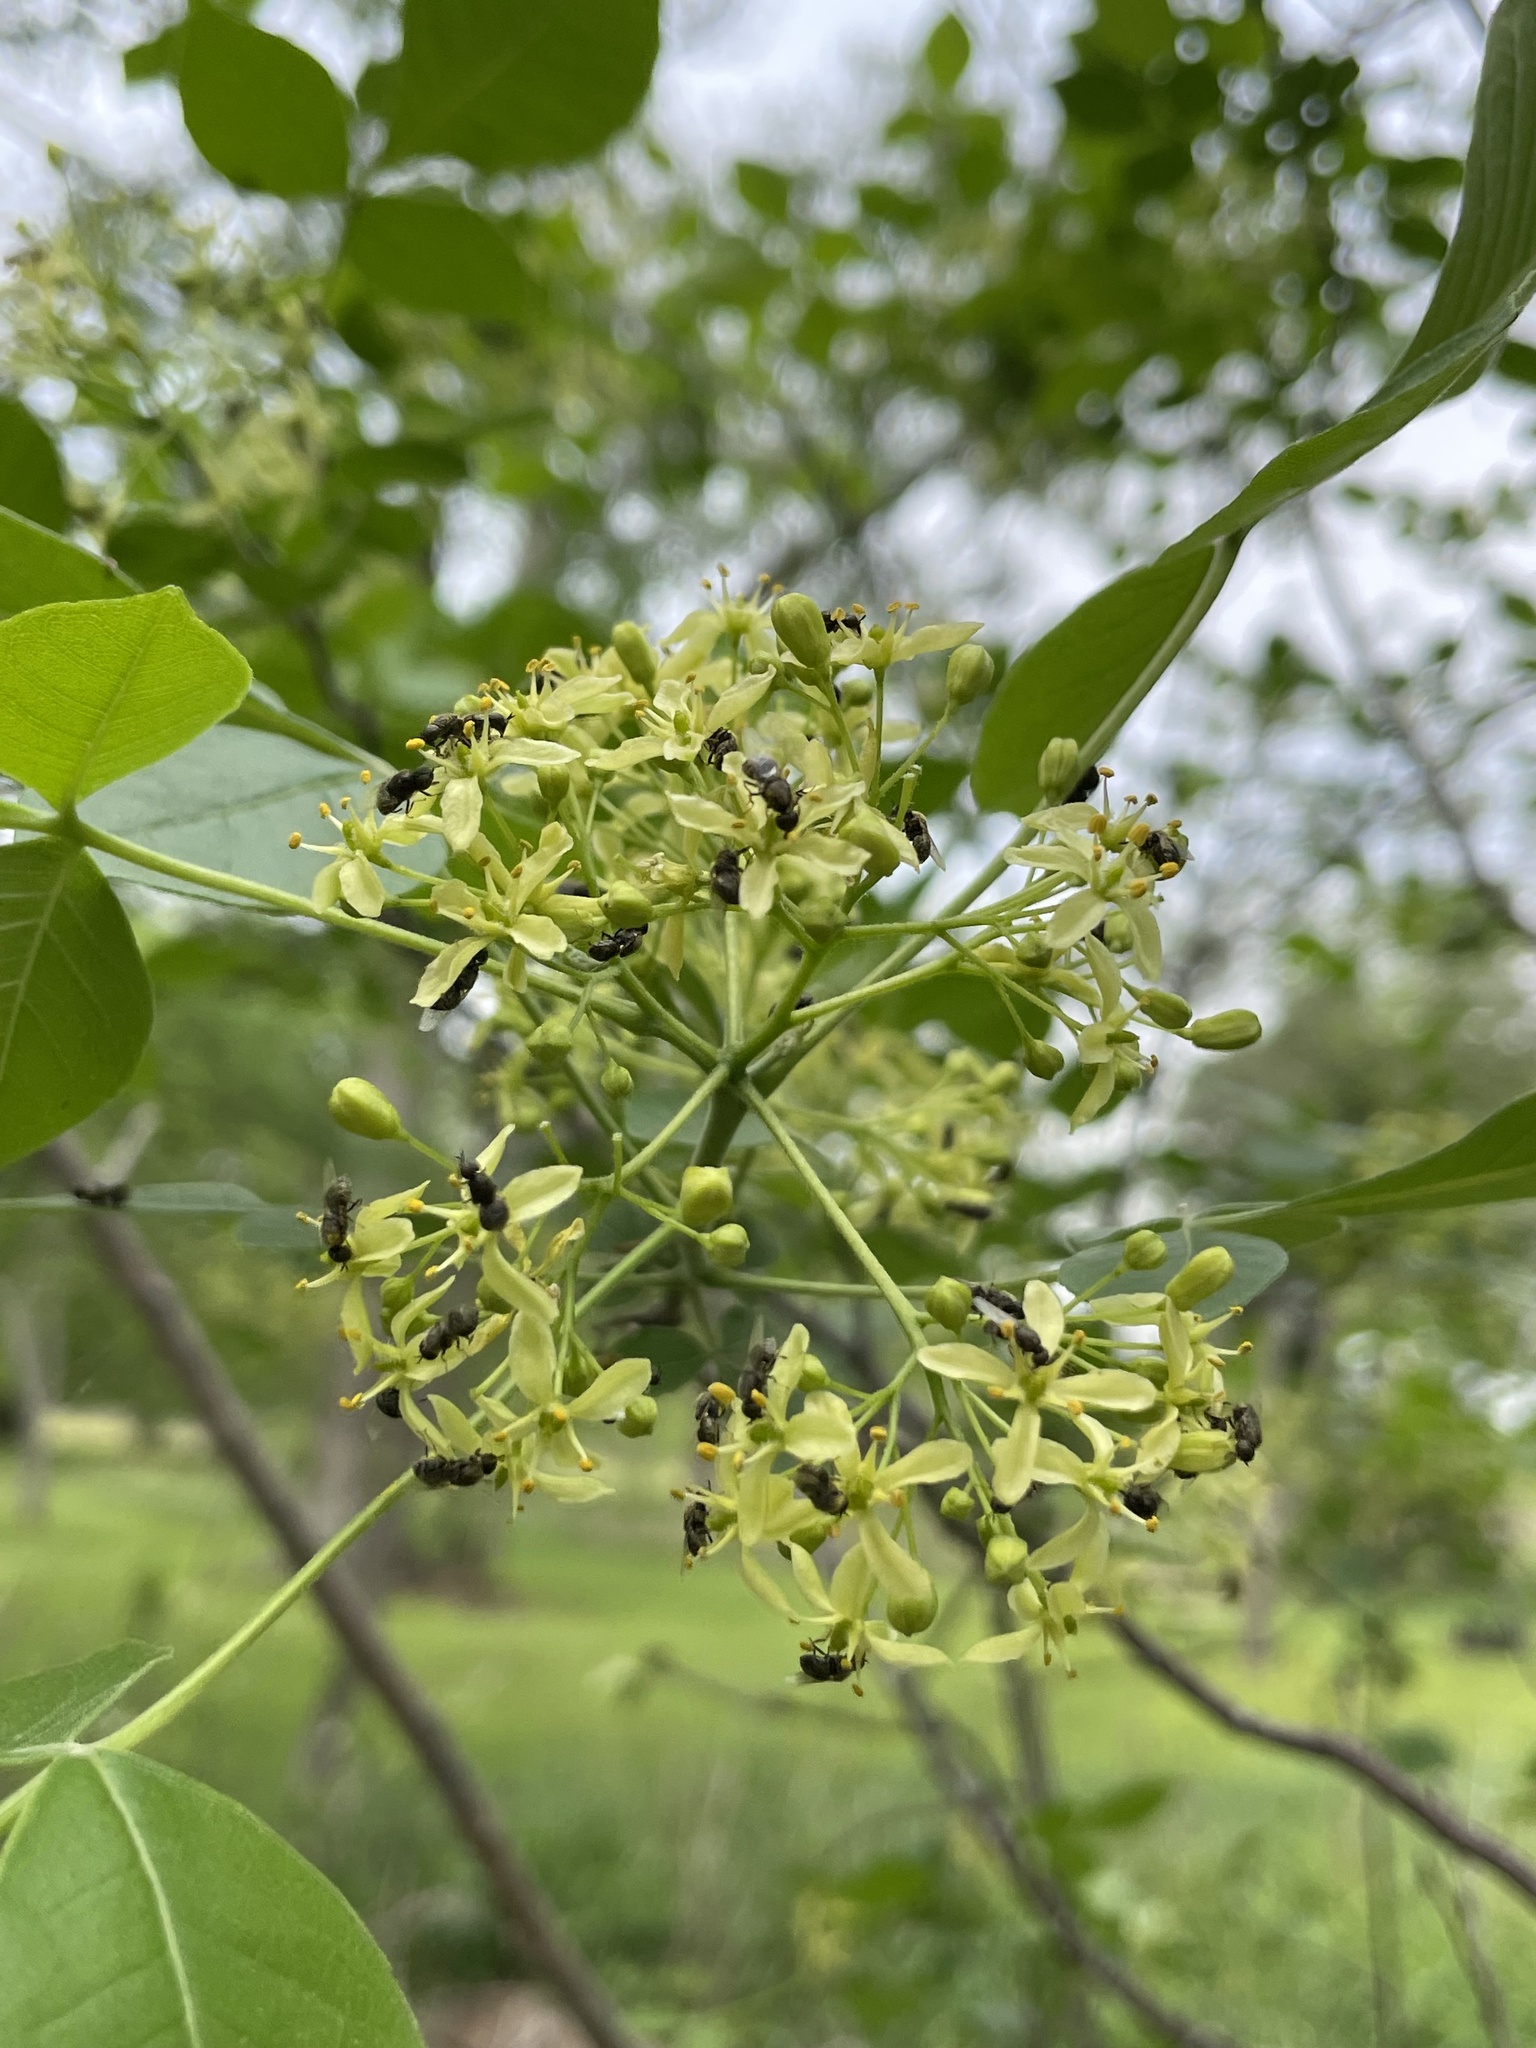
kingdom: Plantae
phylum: Tracheophyta
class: Magnoliopsida
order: Sapindales
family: Rutaceae
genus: Ptelea
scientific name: Ptelea trifoliata
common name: Common hop-tree
